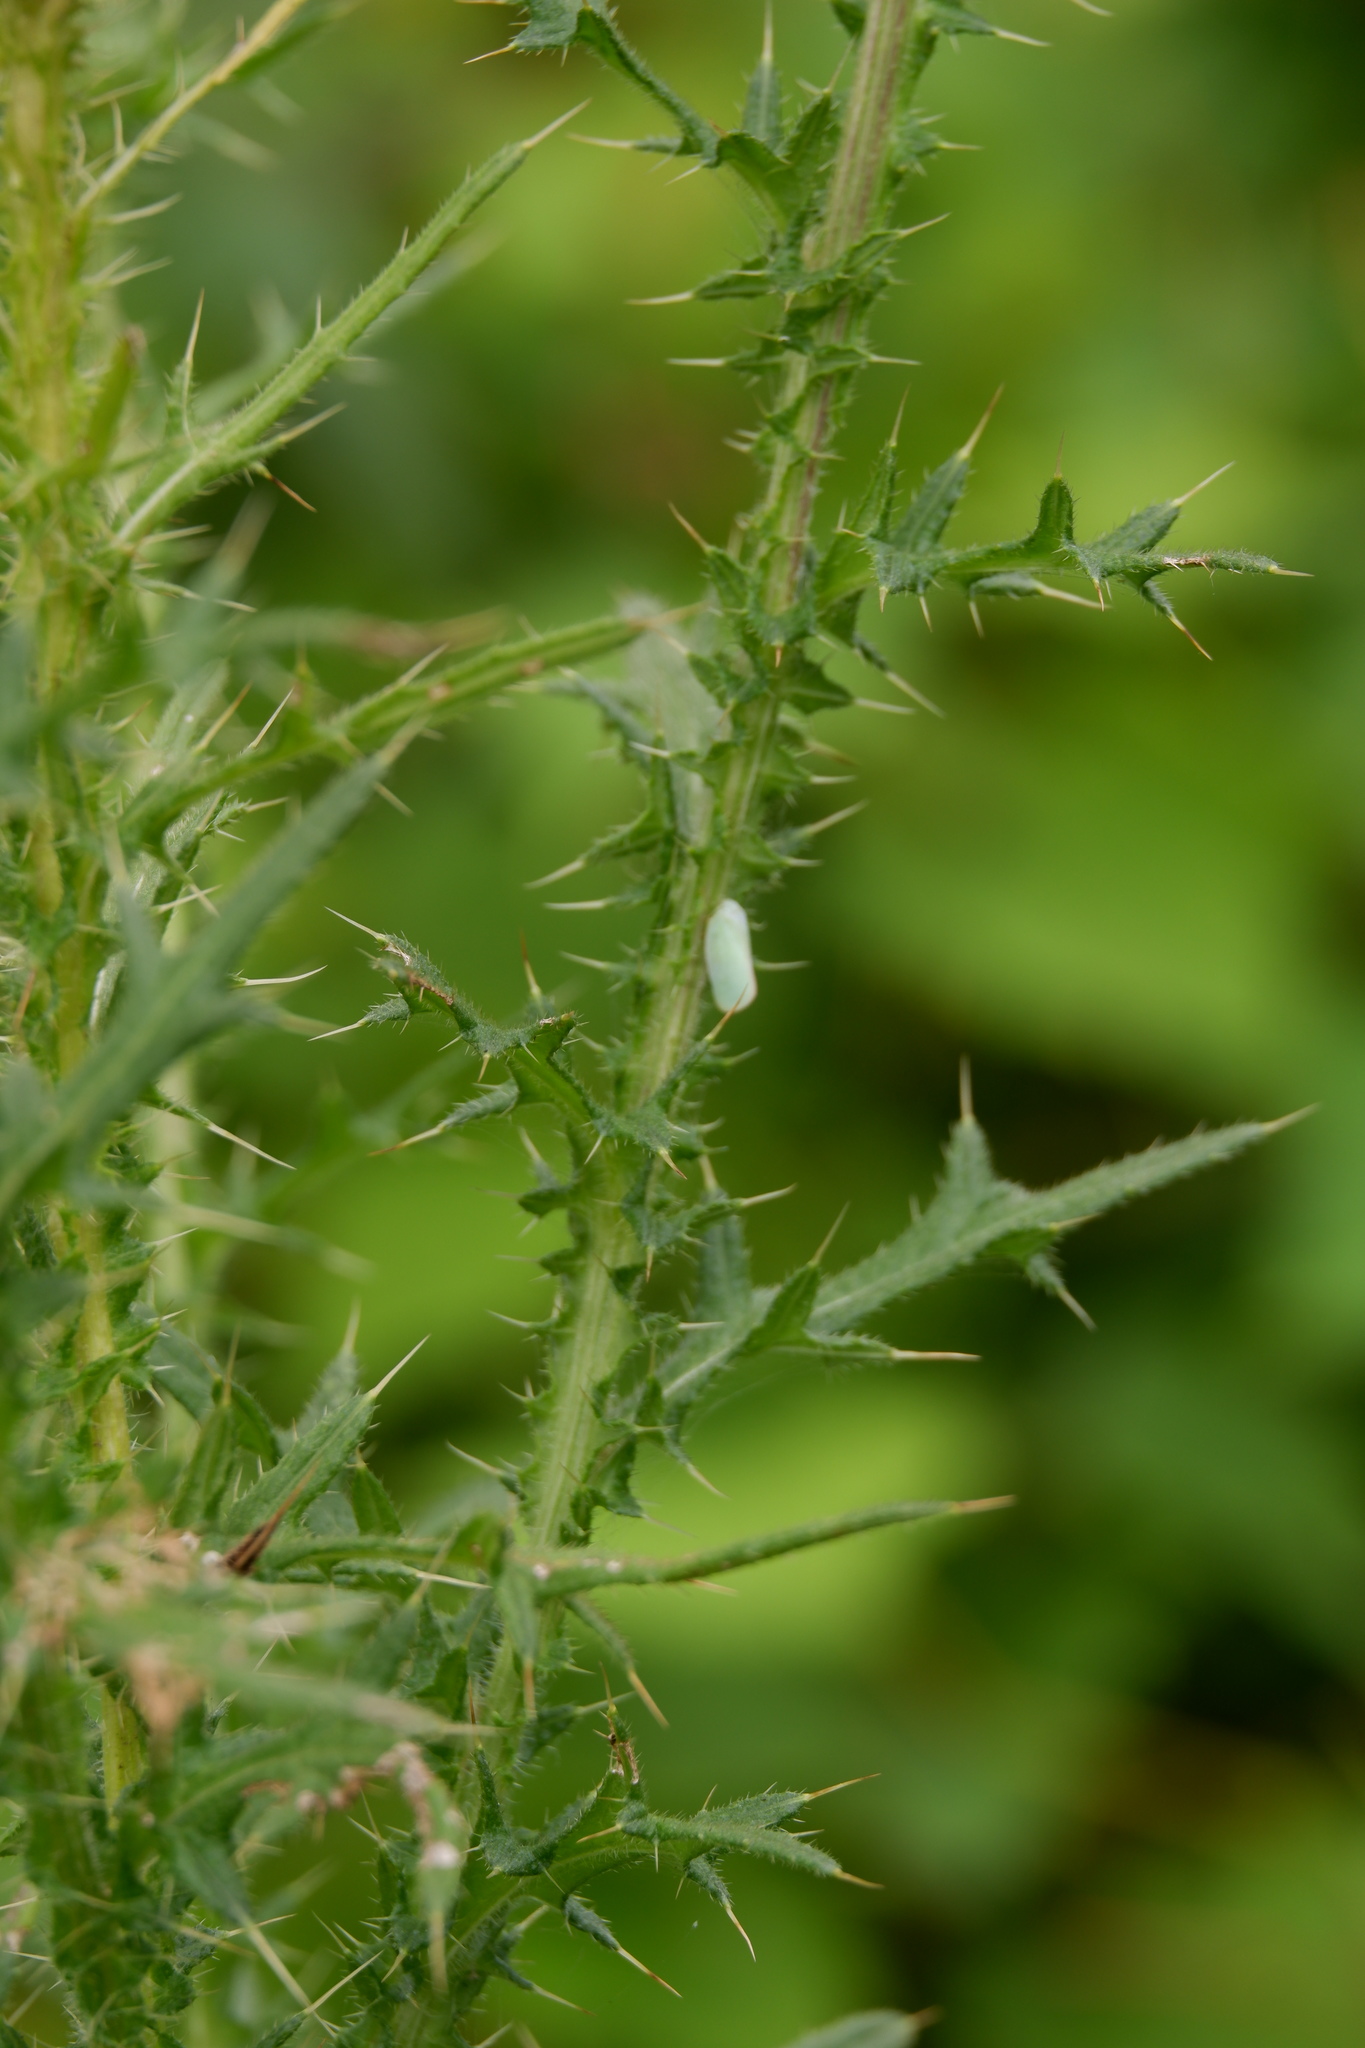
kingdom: Animalia
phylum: Arthropoda
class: Insecta
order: Hemiptera
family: Flatidae
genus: Ormenoides
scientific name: Ormenoides venusta
